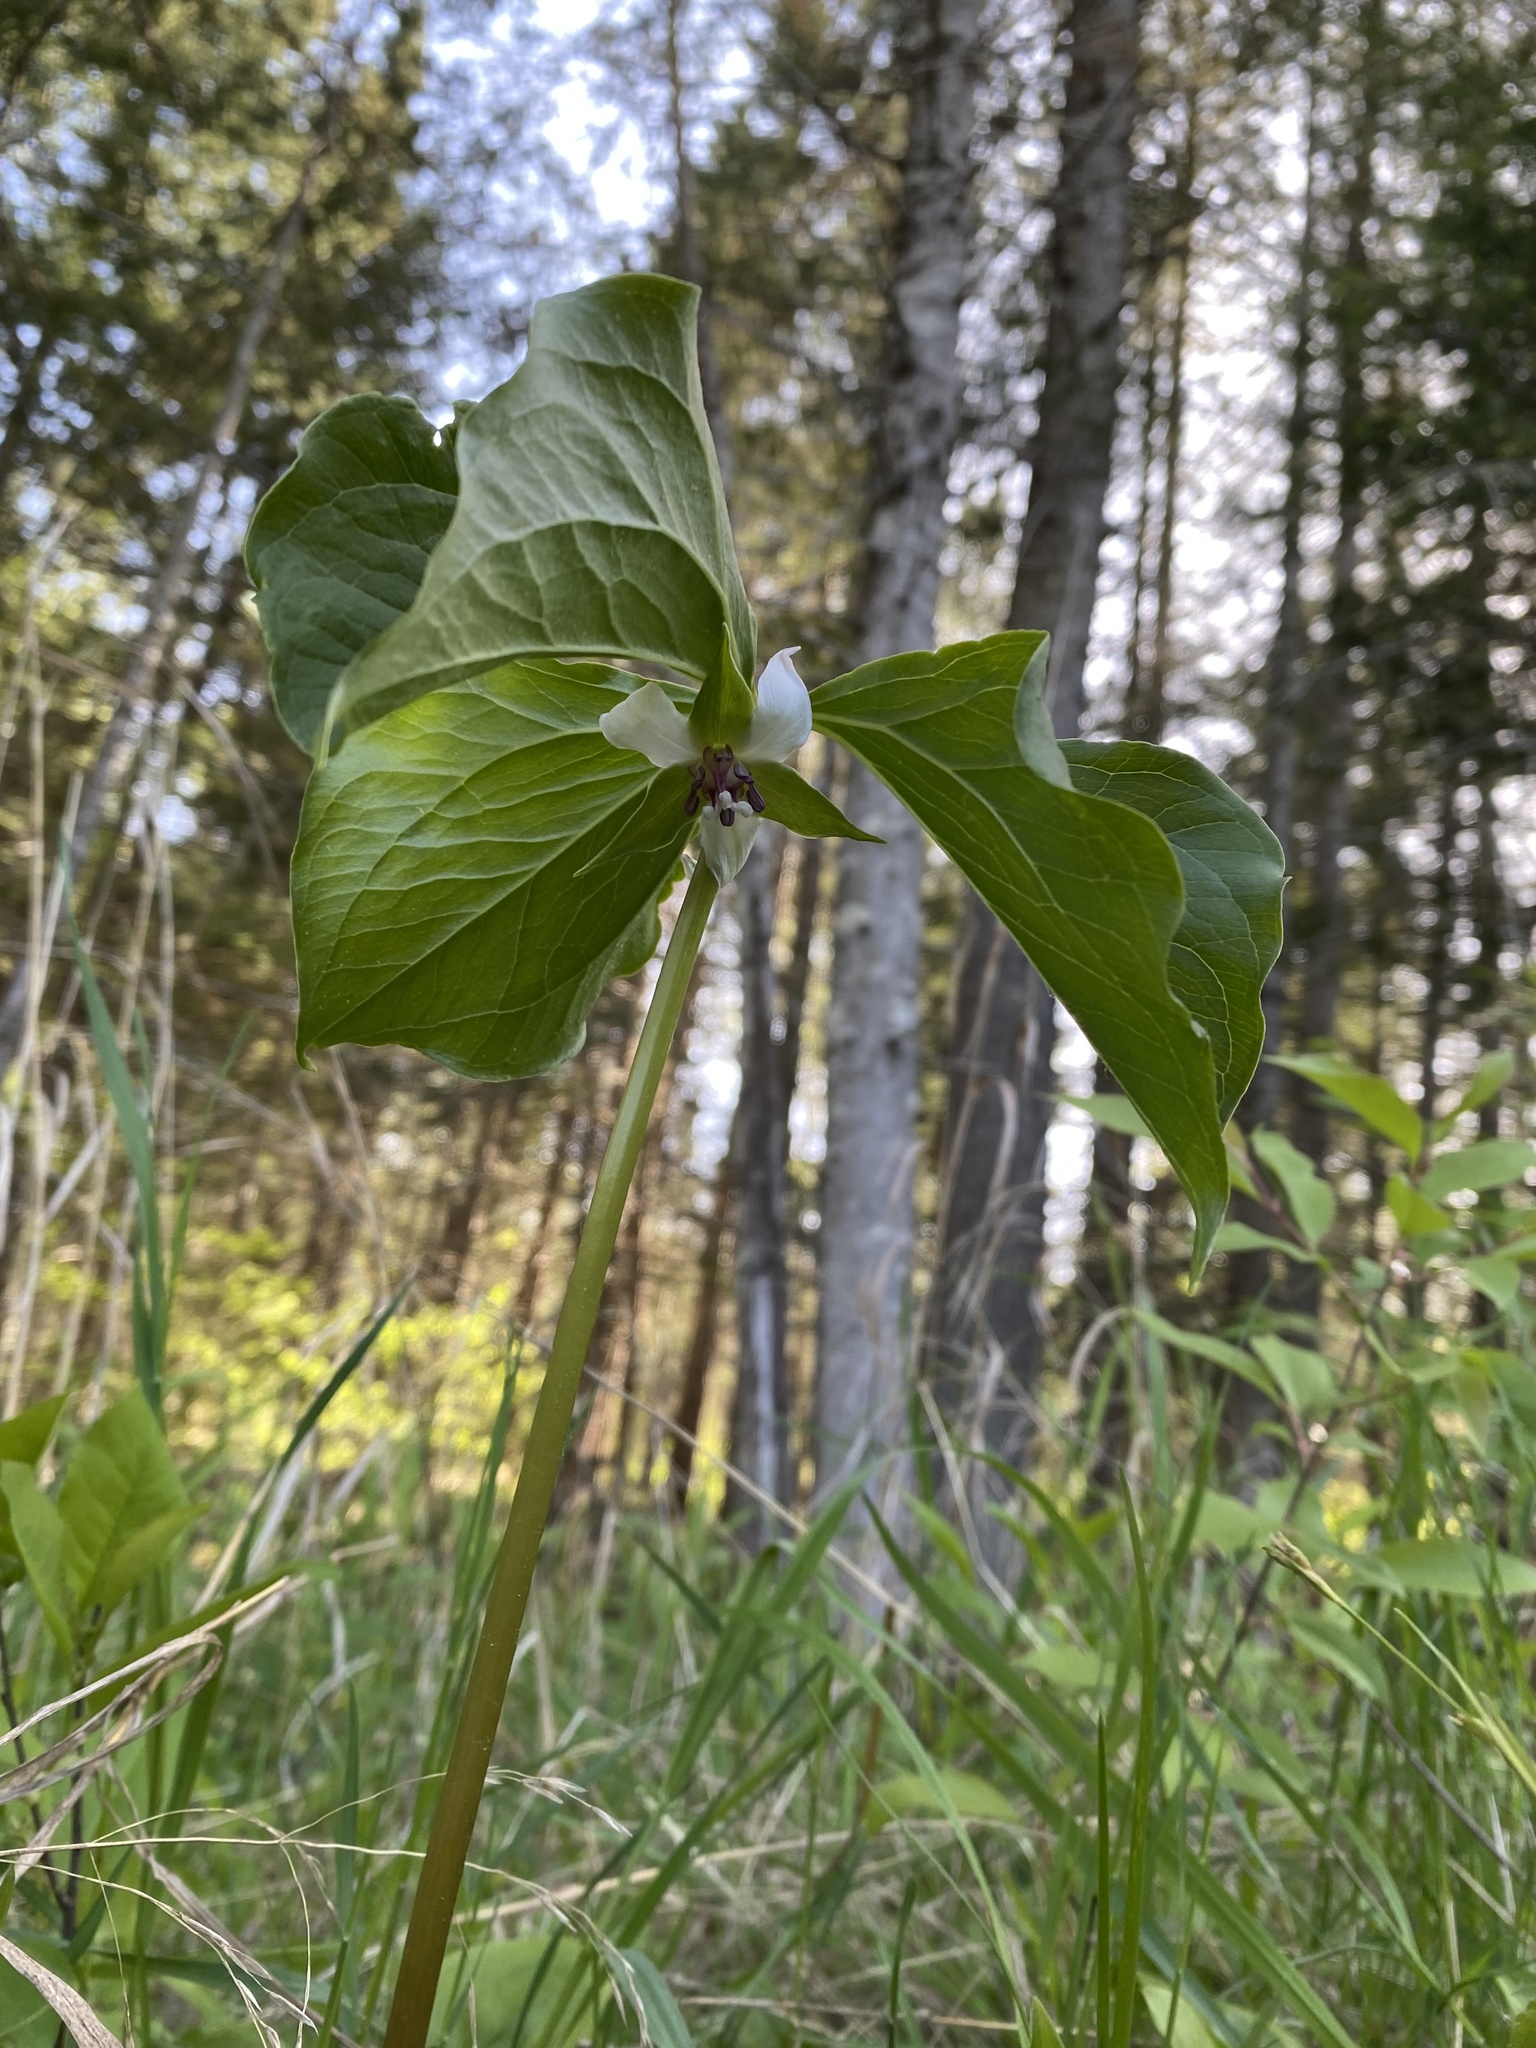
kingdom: Plantae
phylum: Tracheophyta
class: Liliopsida
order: Liliales
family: Melanthiaceae
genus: Trillium
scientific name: Trillium cernuum
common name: Nodding trillium
